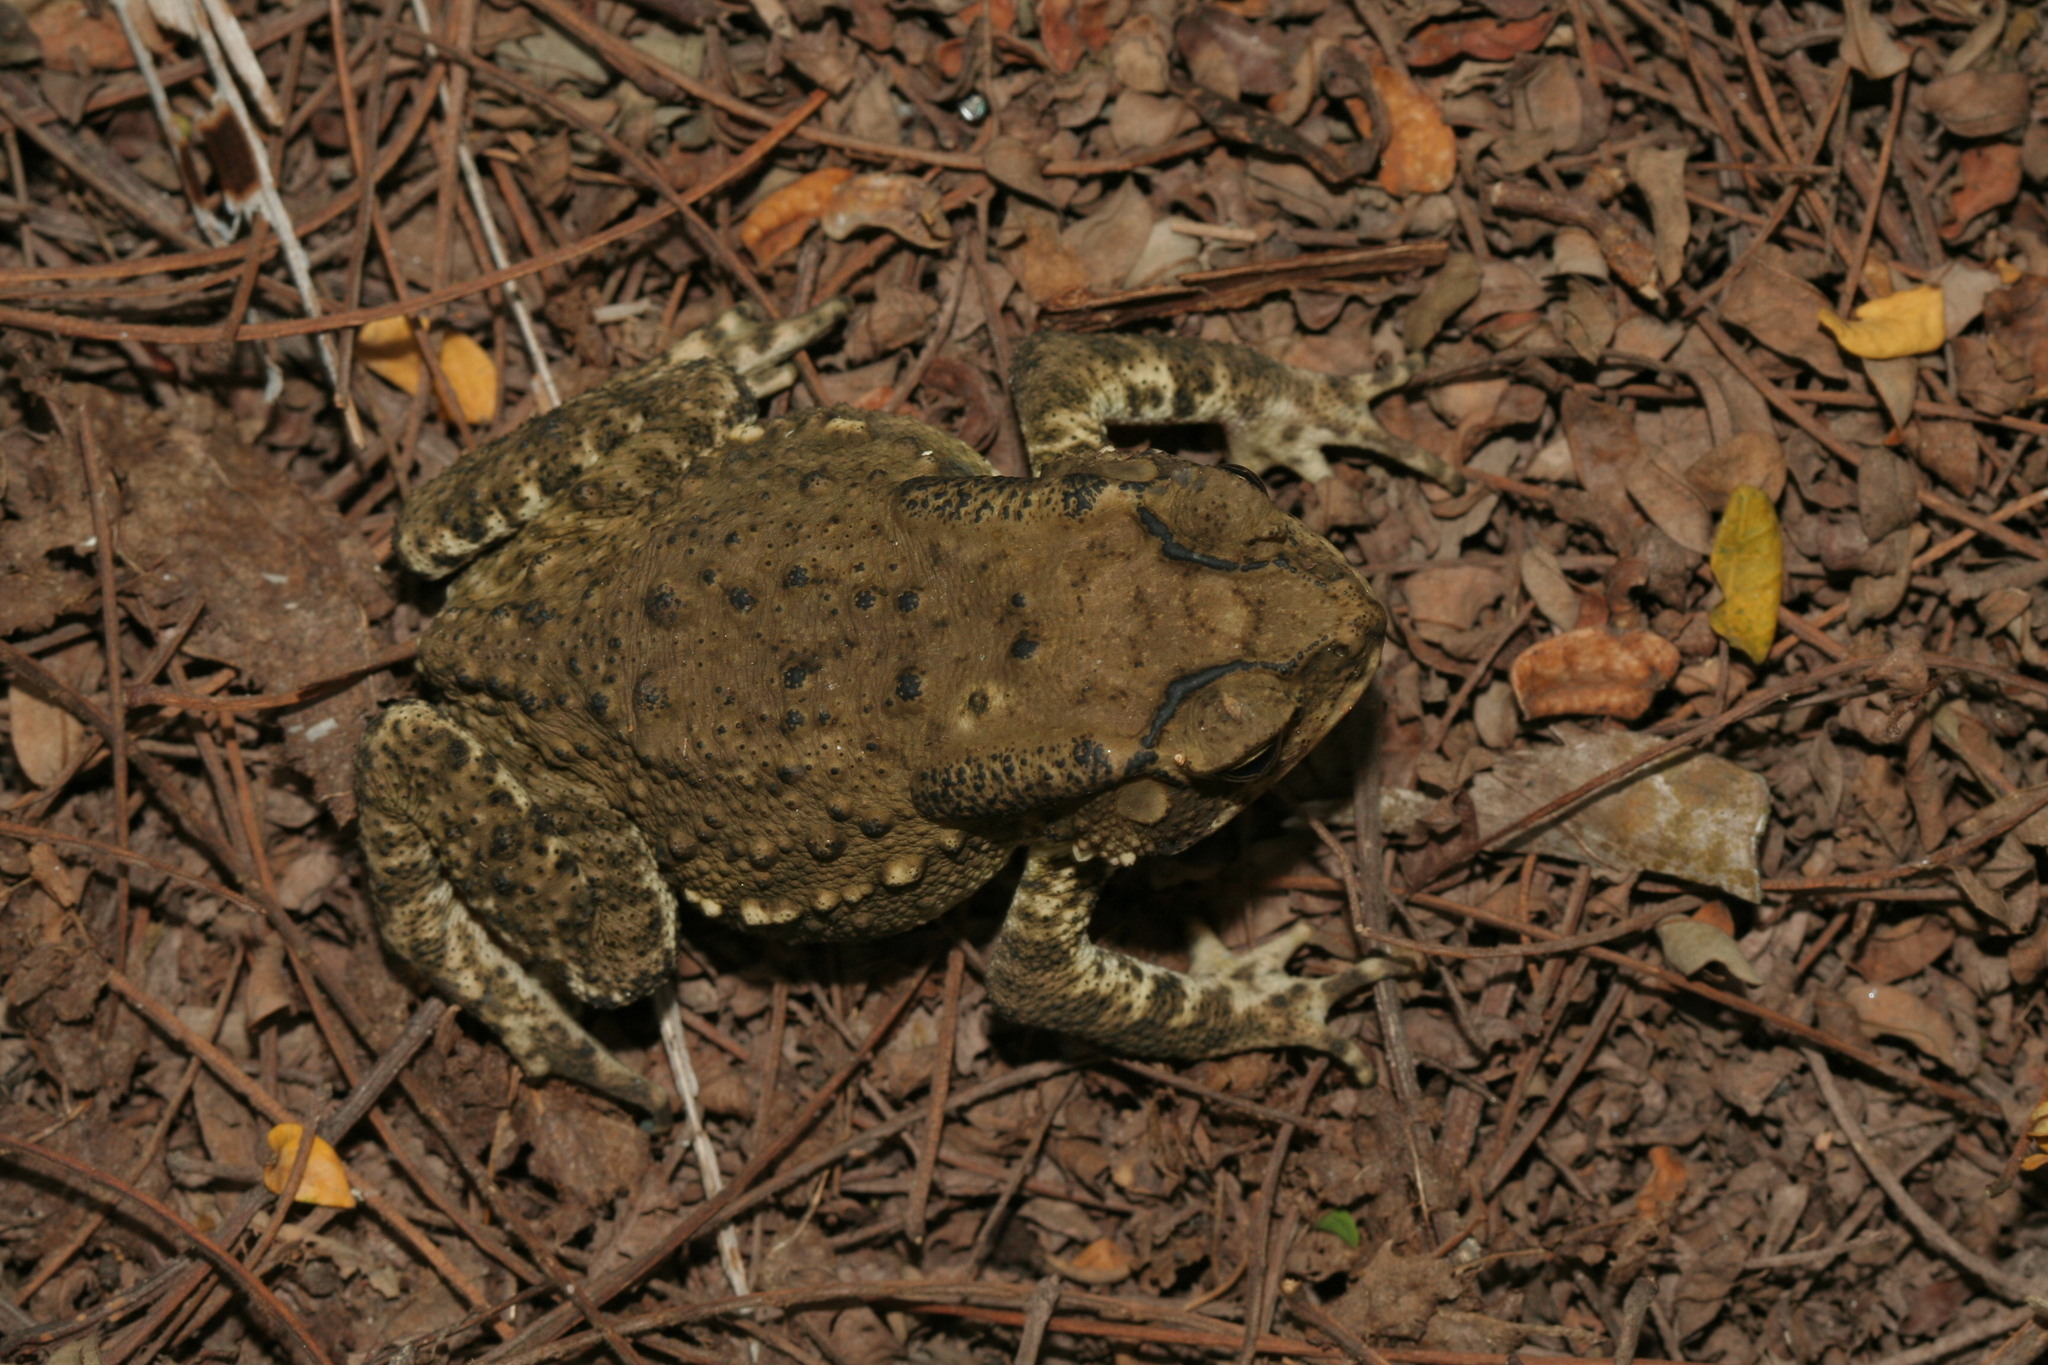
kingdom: Animalia
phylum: Chordata
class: Amphibia
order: Anura
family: Bufonidae
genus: Duttaphrynus
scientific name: Duttaphrynus melanostictus
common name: Common sunda toad
